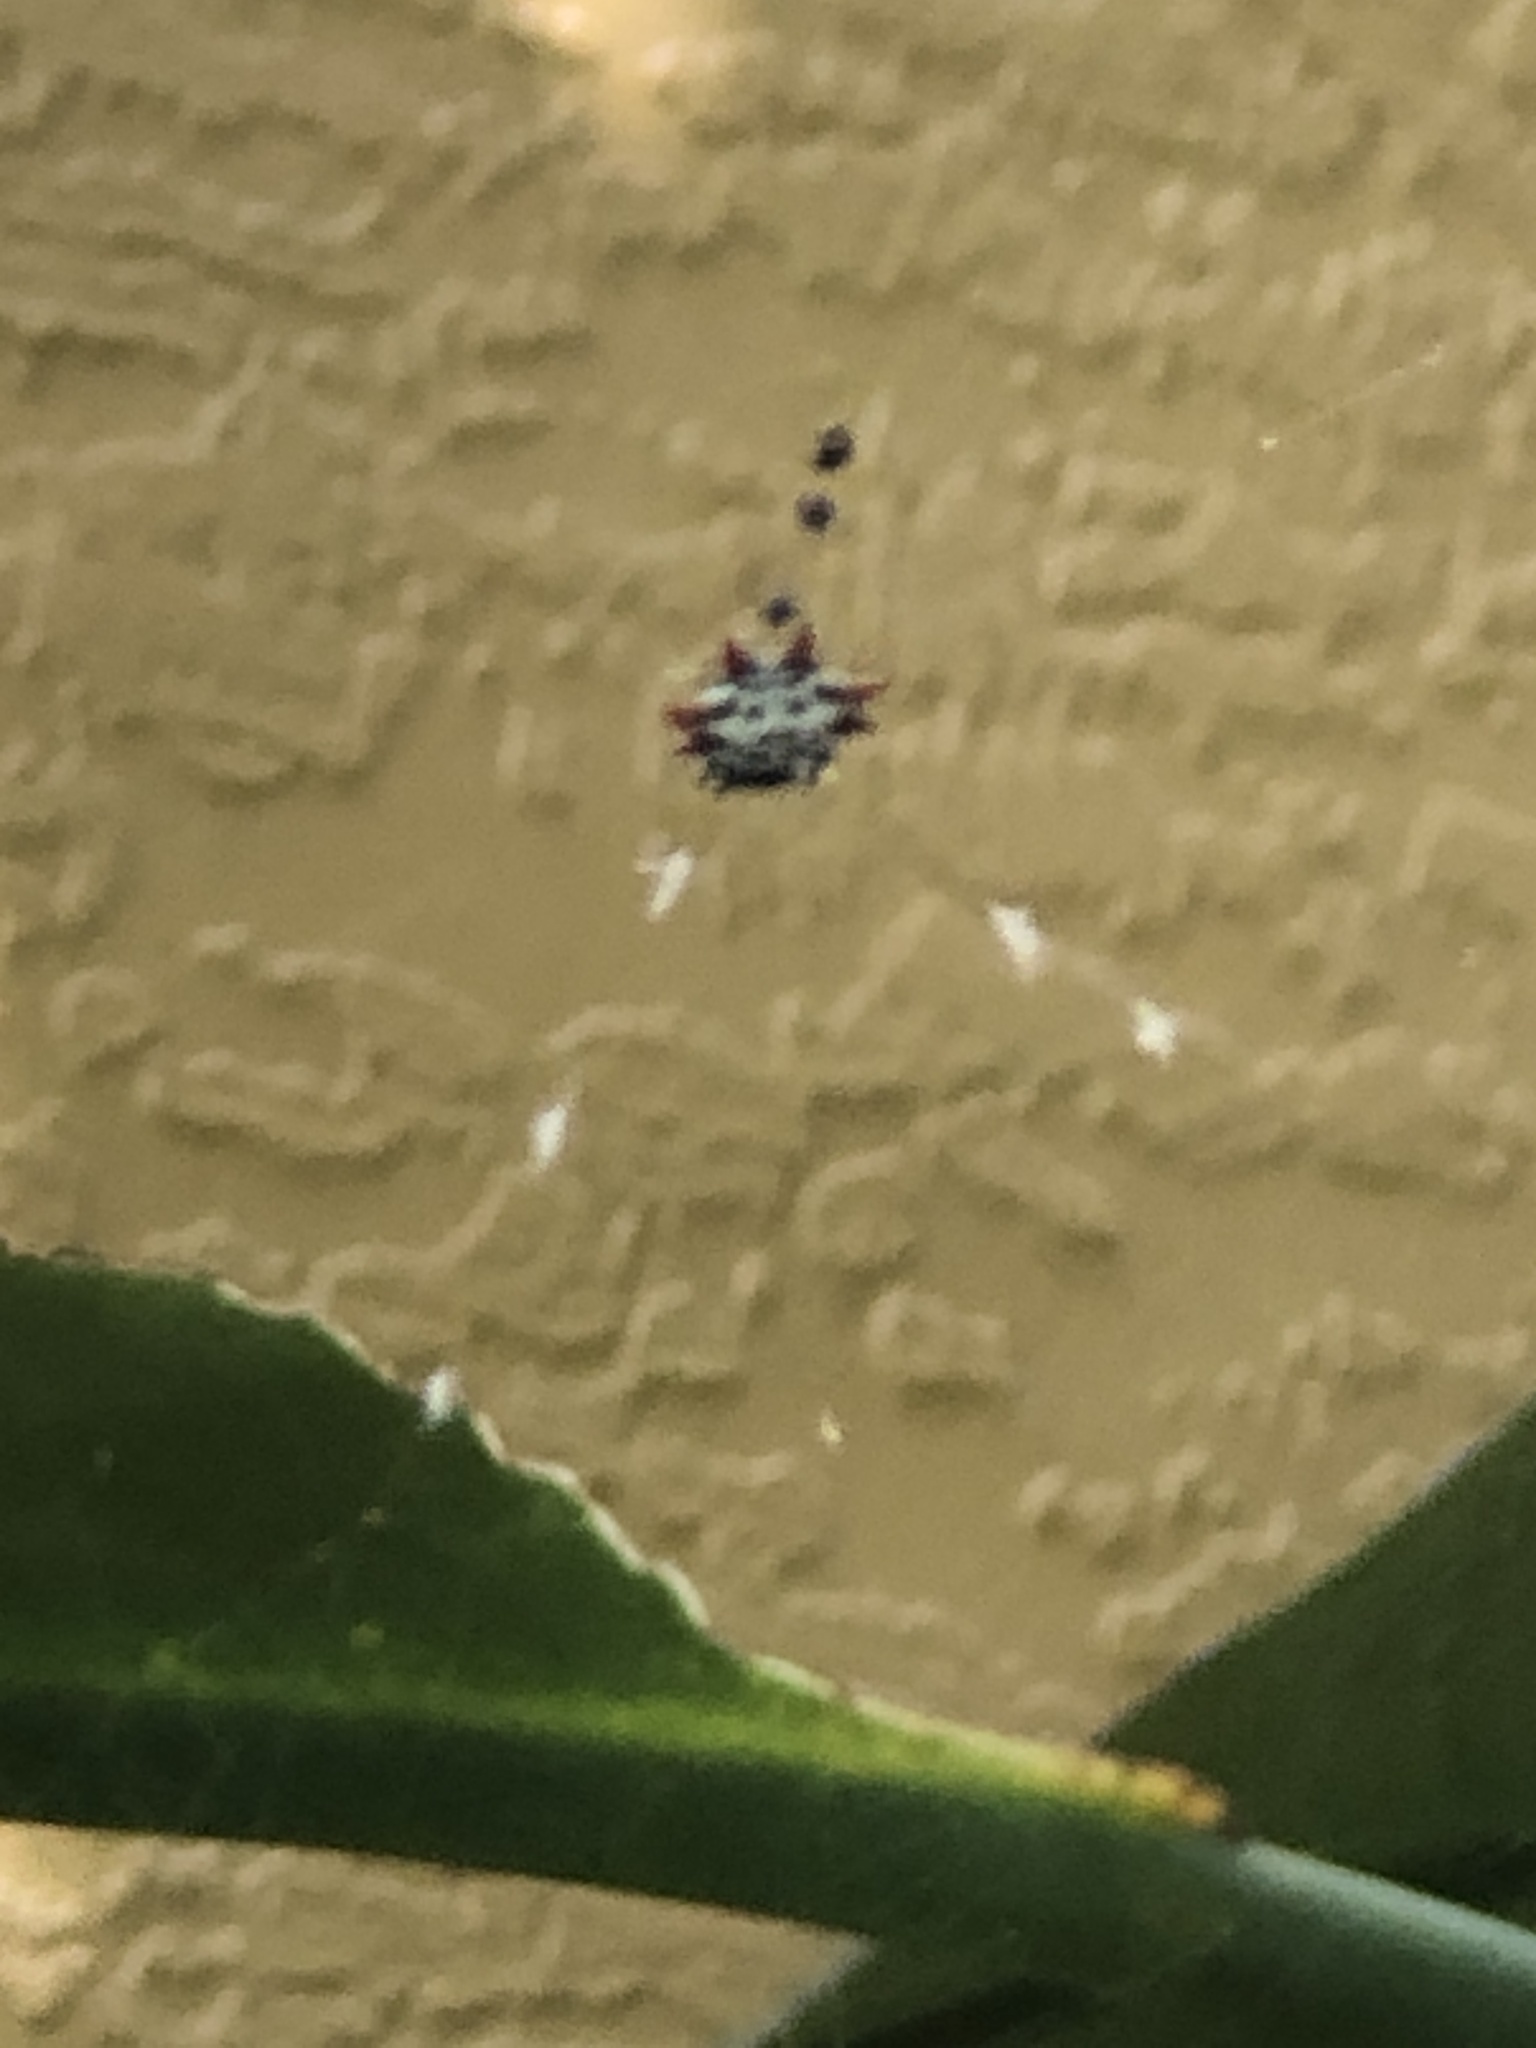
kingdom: Animalia
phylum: Arthropoda
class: Arachnida
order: Araneae
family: Araneidae
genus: Gasteracantha
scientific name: Gasteracantha cancriformis
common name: Orb weavers
